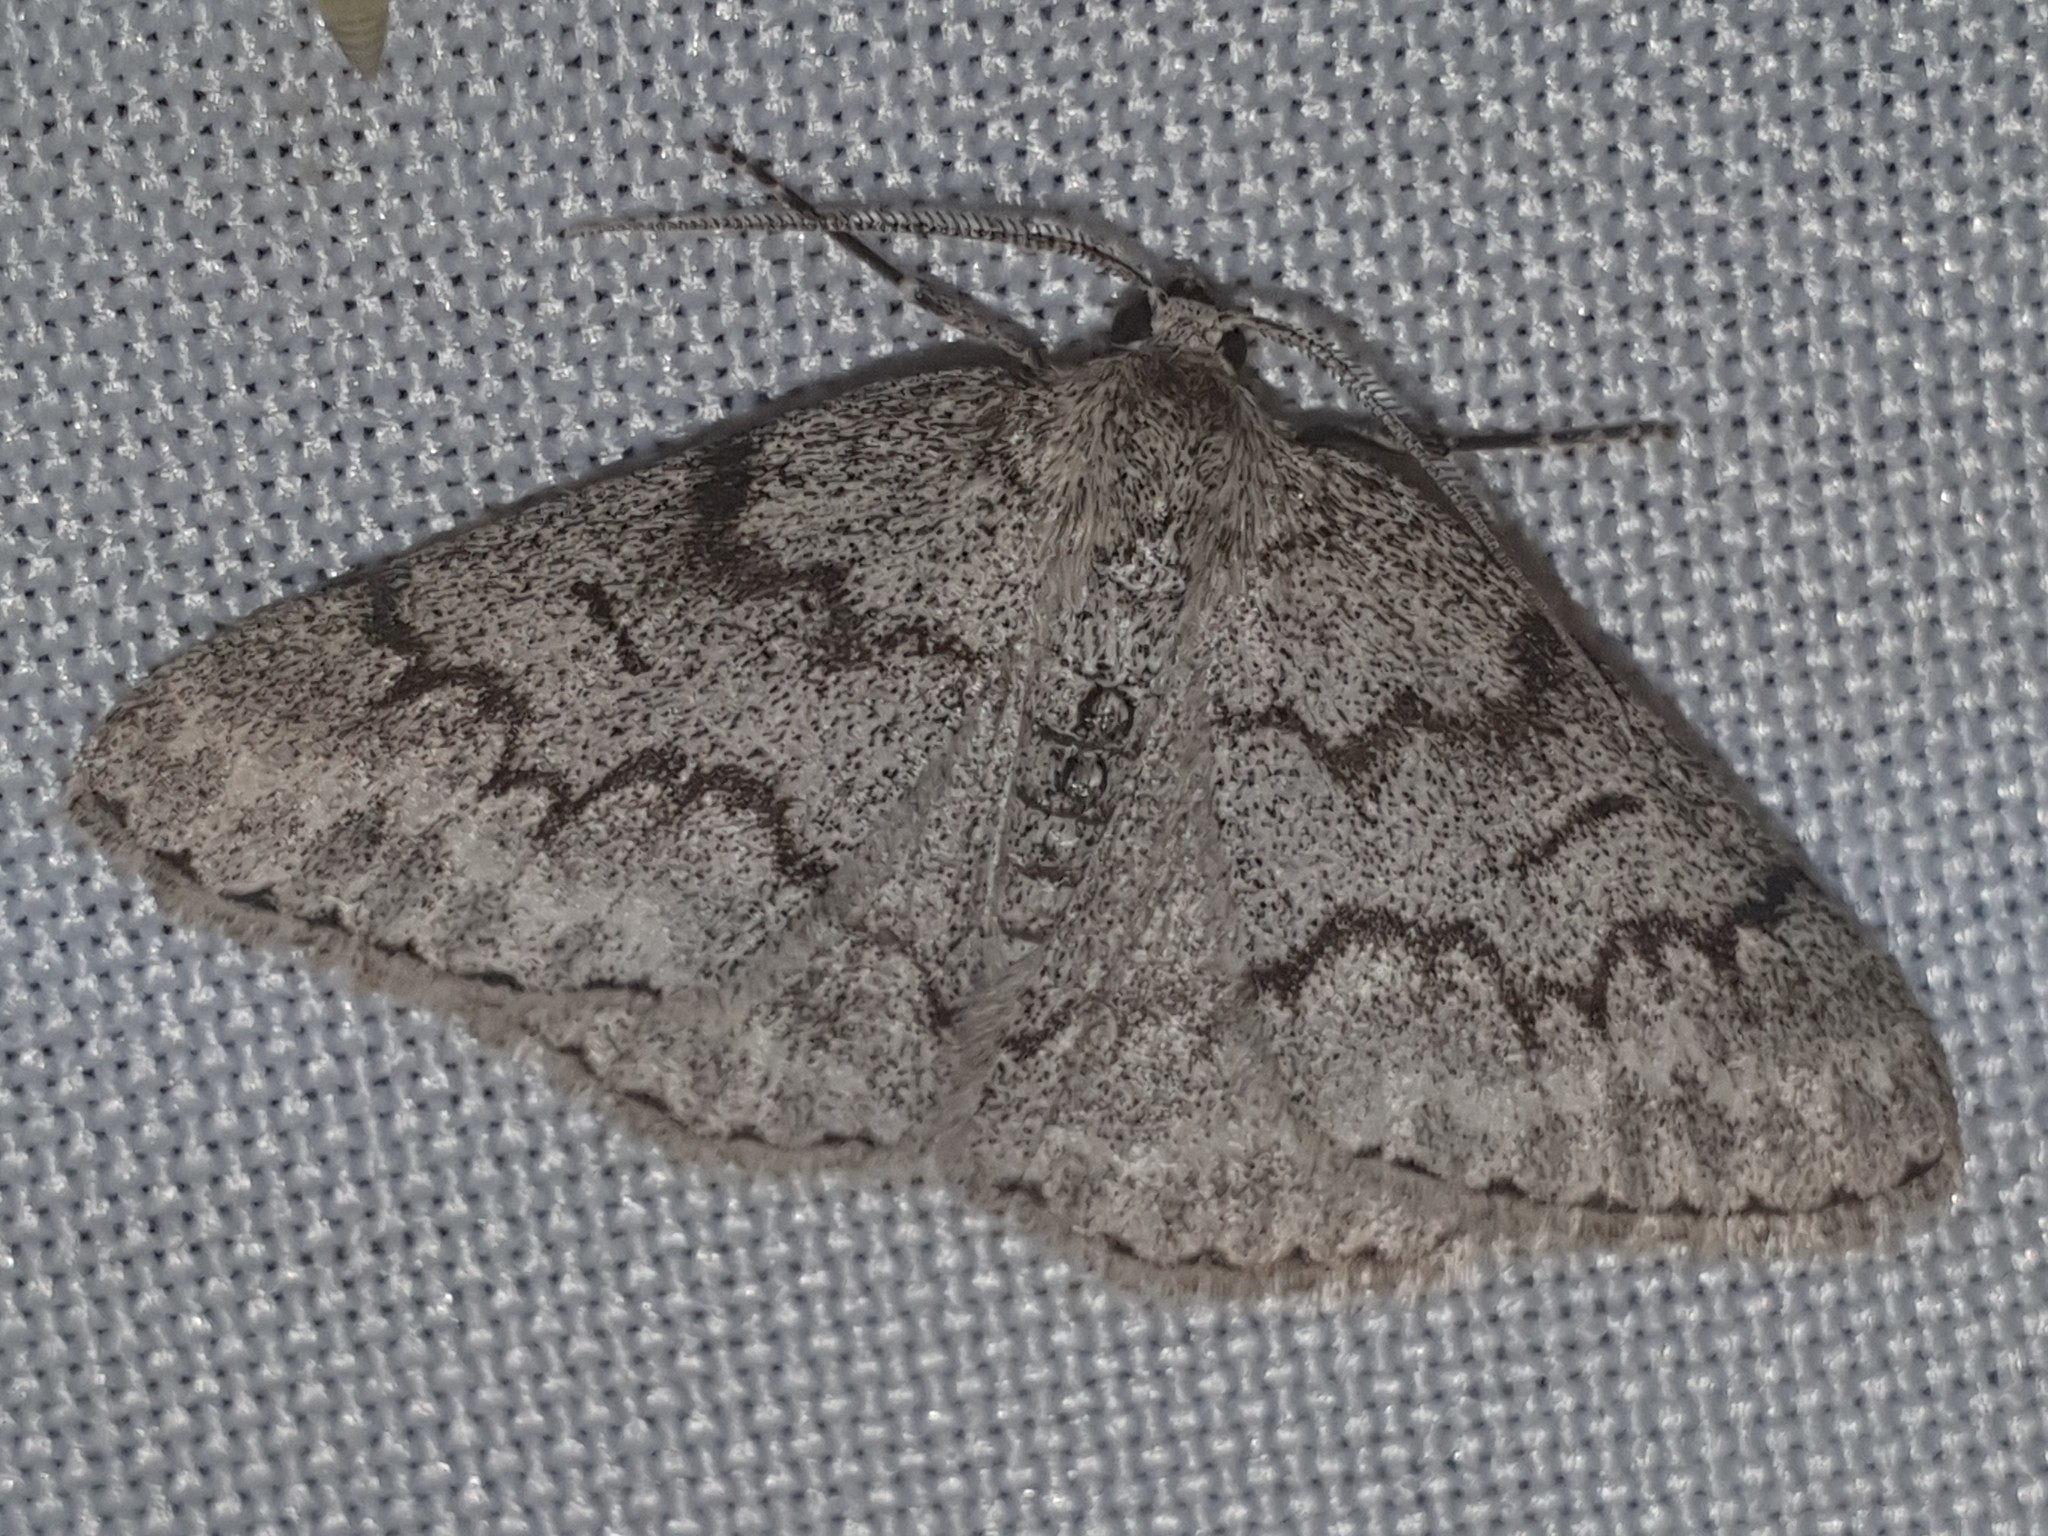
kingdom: Animalia
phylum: Arthropoda
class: Insecta
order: Lepidoptera
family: Geometridae
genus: Pseudoterpna
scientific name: Pseudoterpna coronillaria
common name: Jersey emerald
